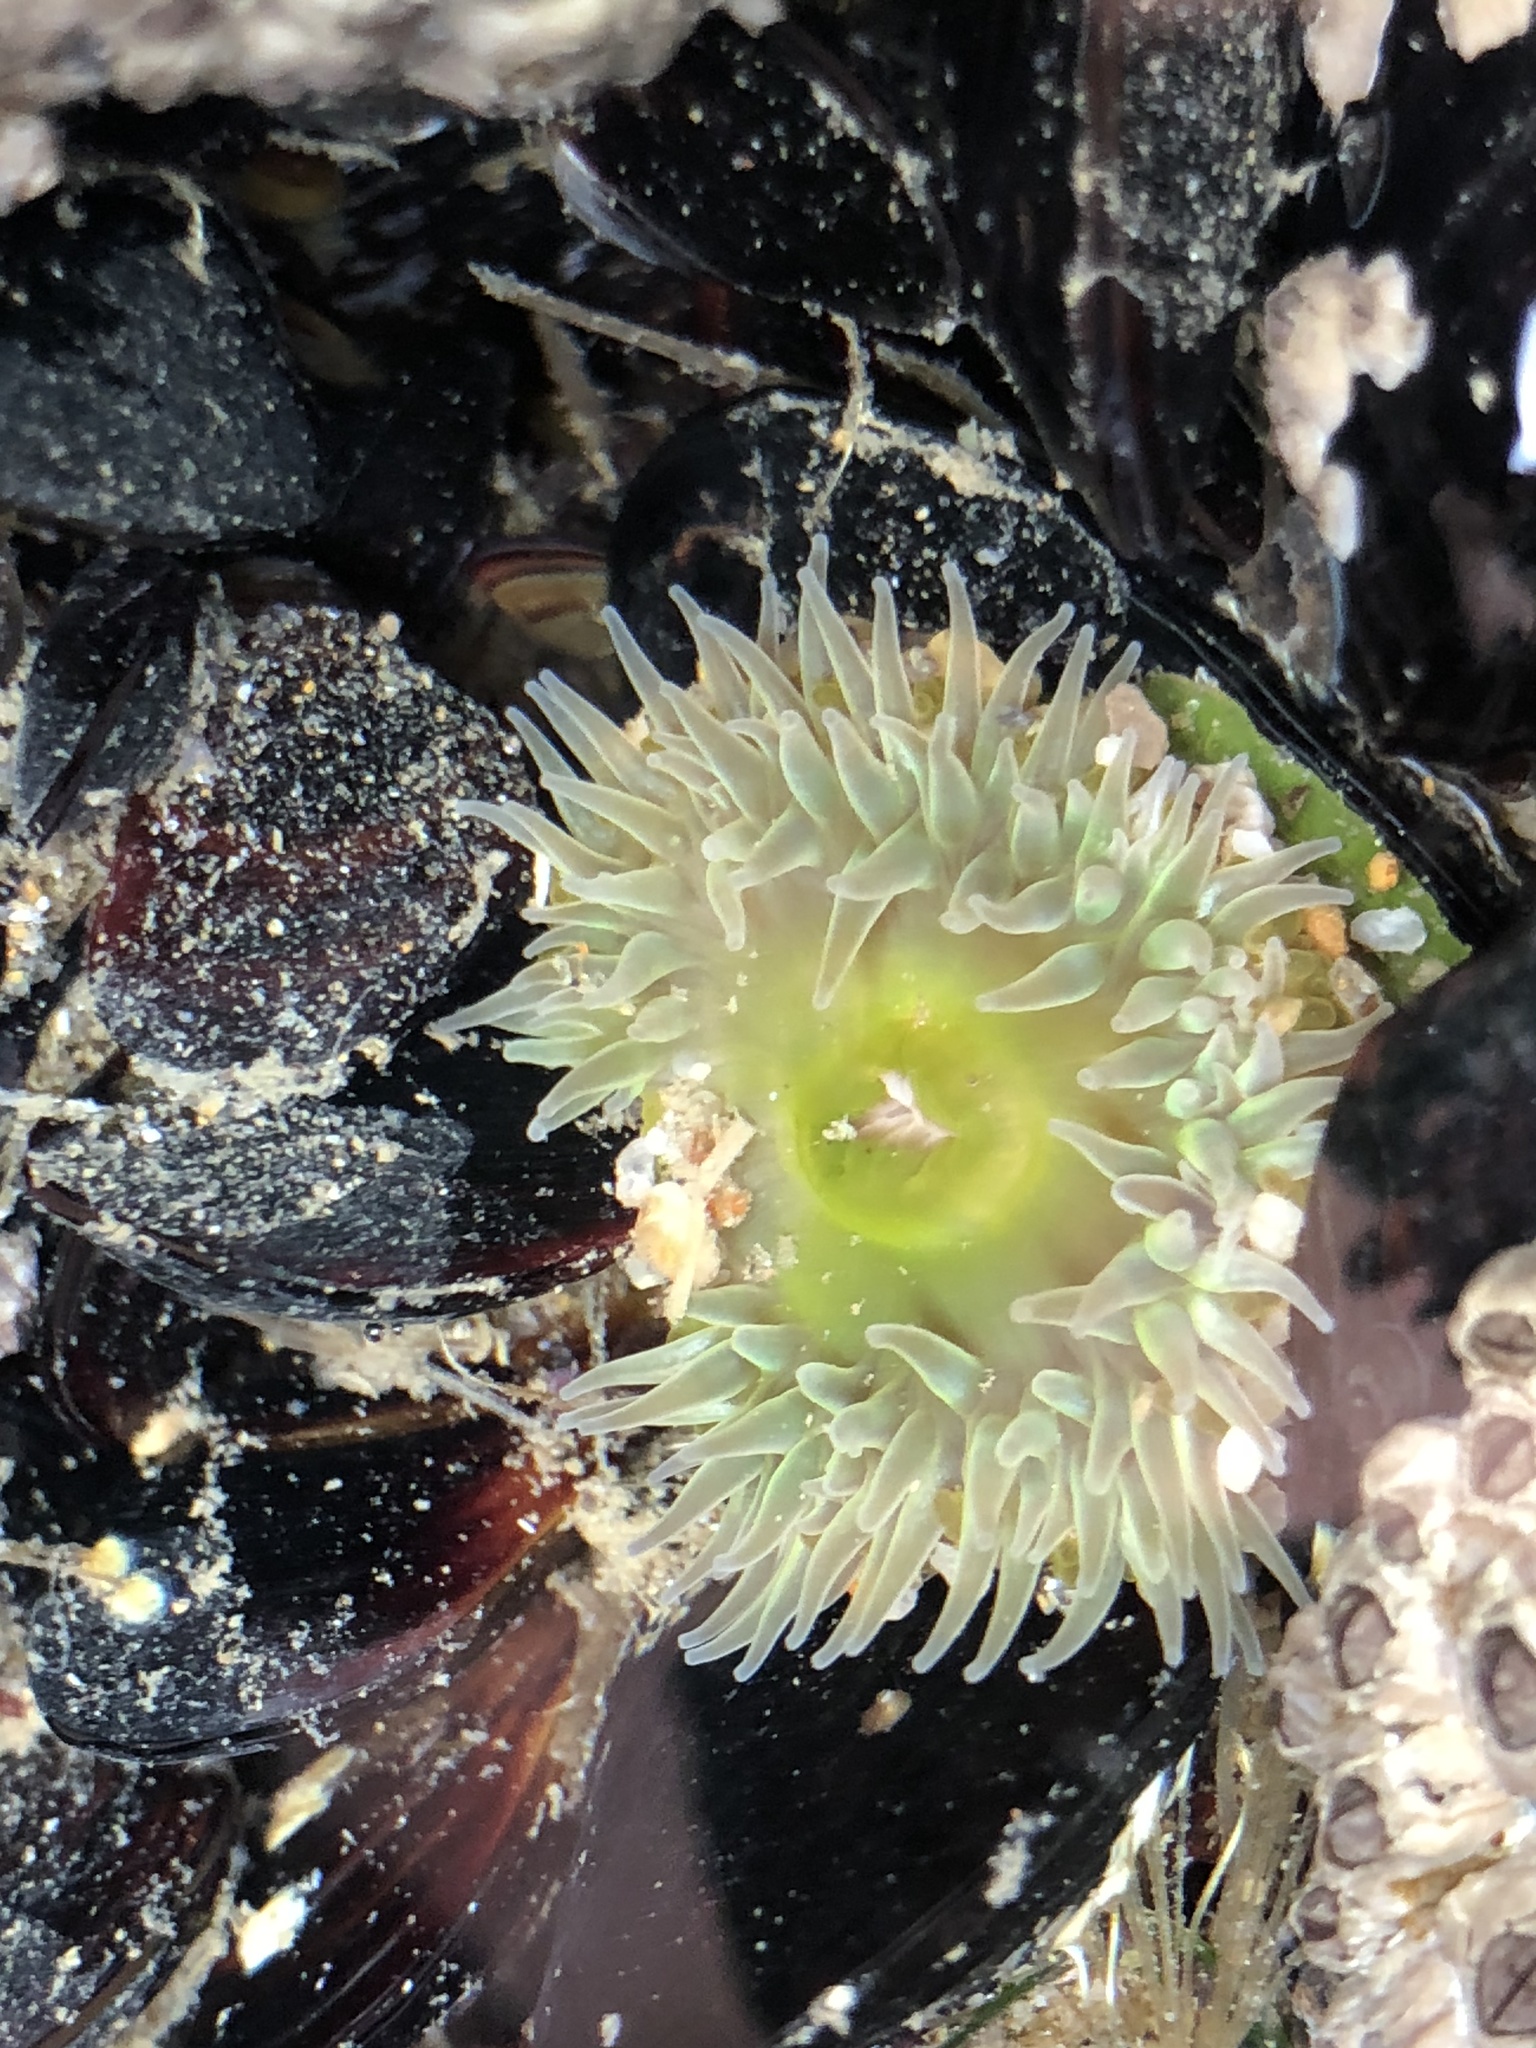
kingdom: Animalia
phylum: Cnidaria
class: Anthozoa
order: Actiniaria
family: Actiniidae
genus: Anthopleura
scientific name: Anthopleura xanthogrammica
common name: Giant green anemone
